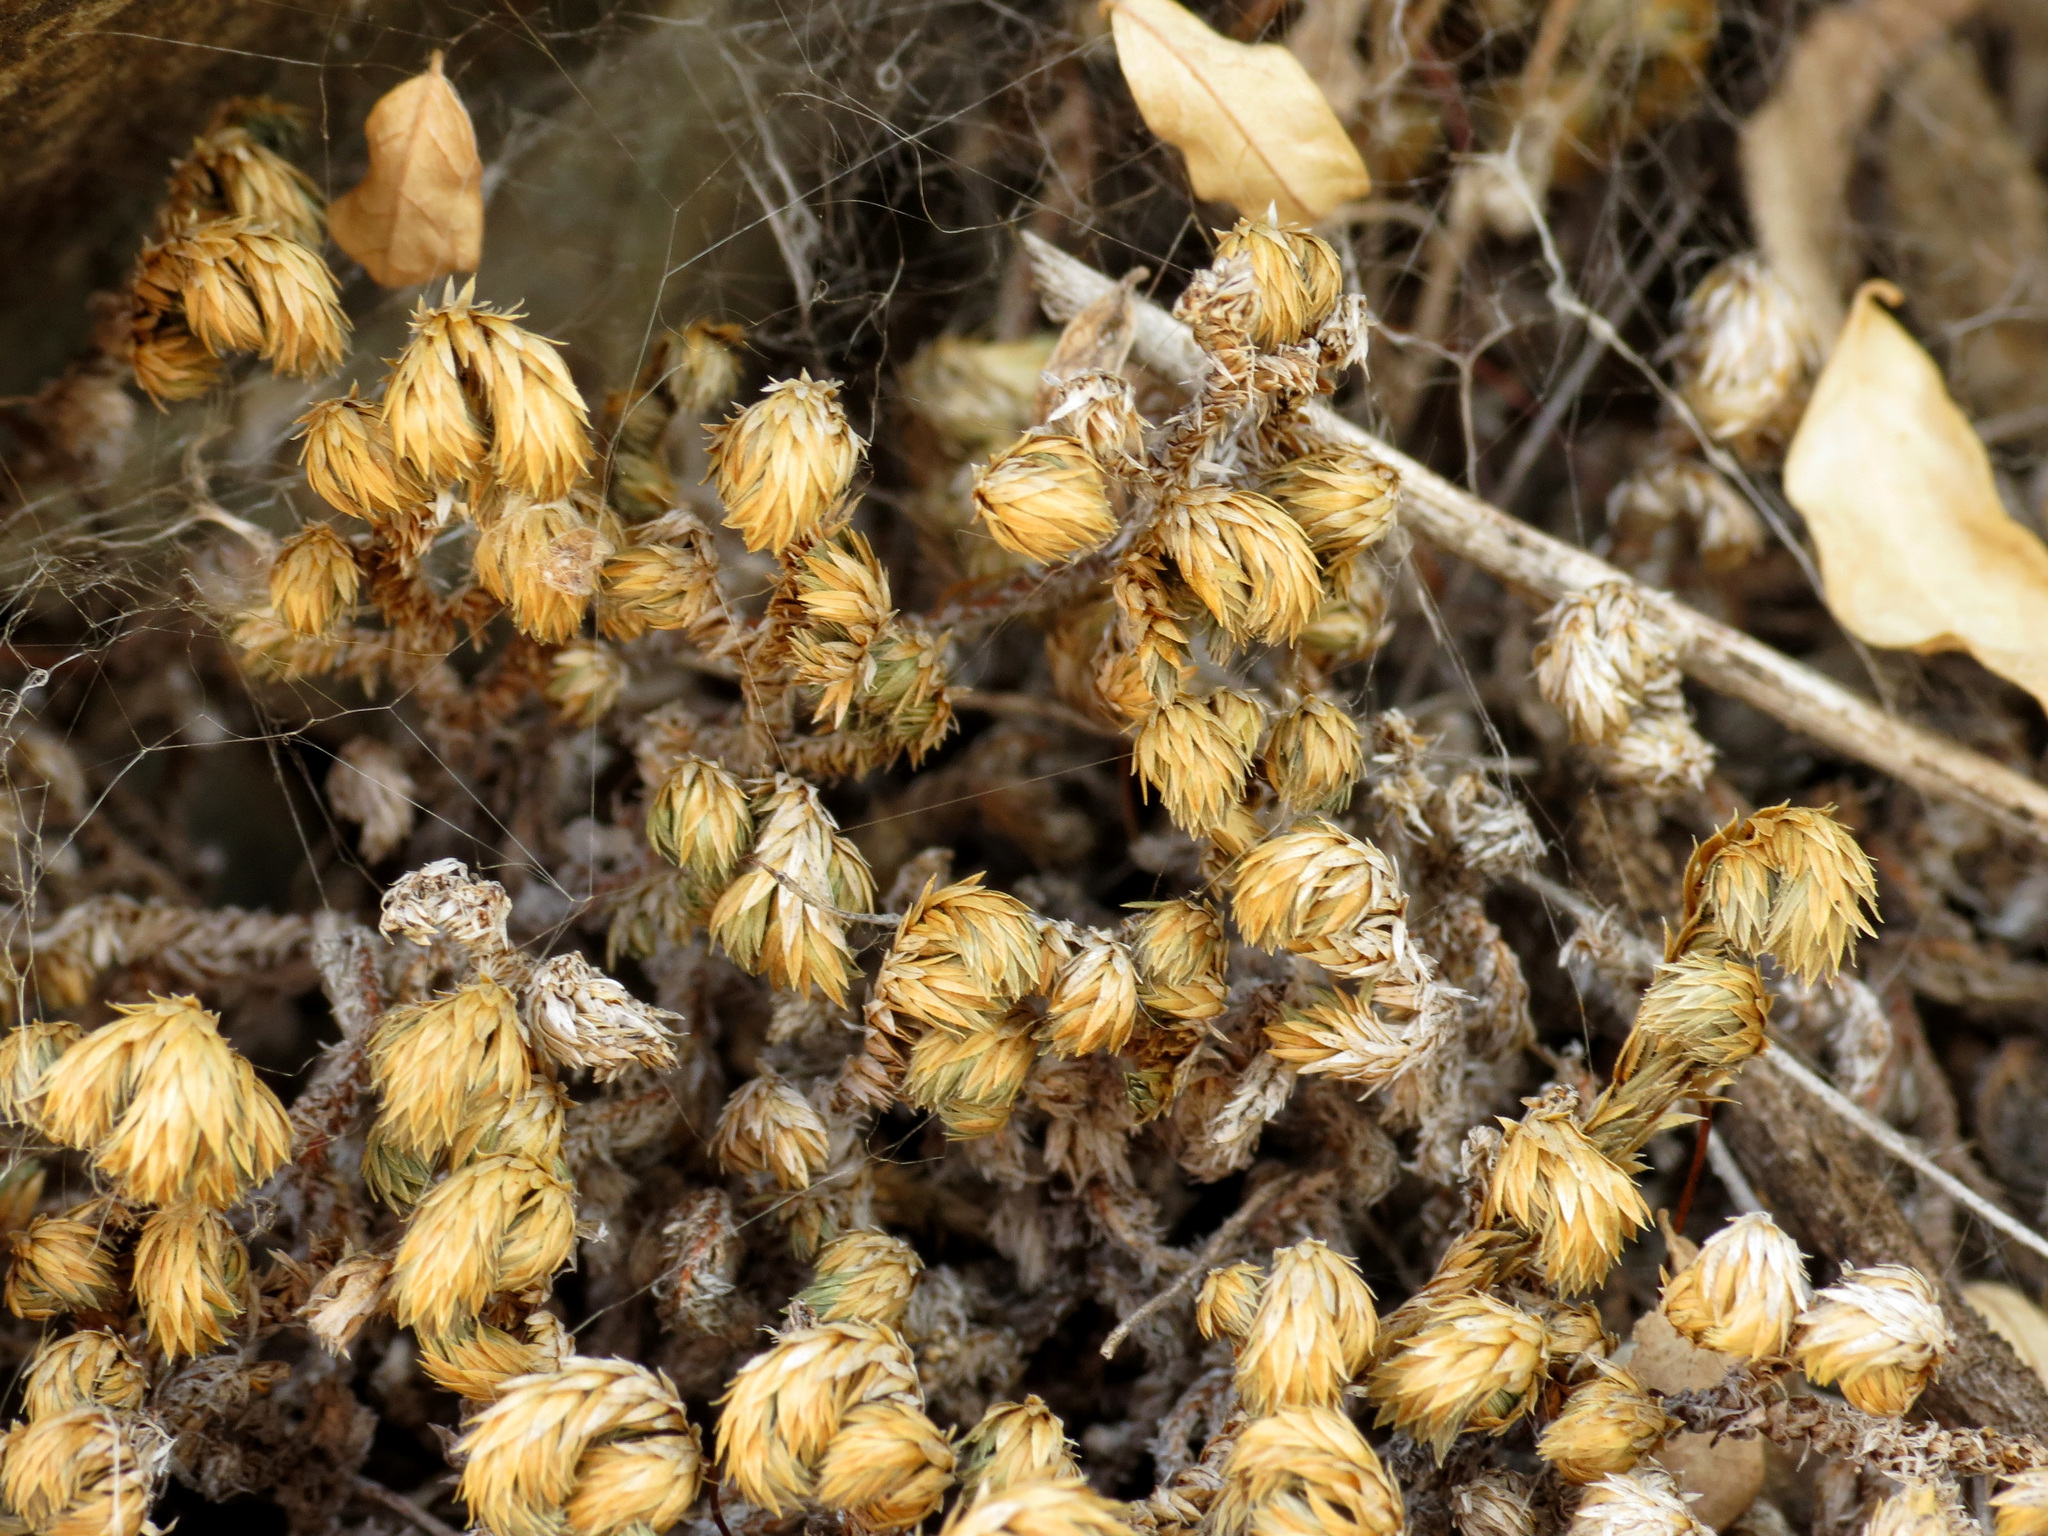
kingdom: Plantae
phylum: Tracheophyta
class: Lycopodiopsida
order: Selaginellales
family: Selaginellaceae
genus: Selaginella
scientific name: Selaginella arizonica
